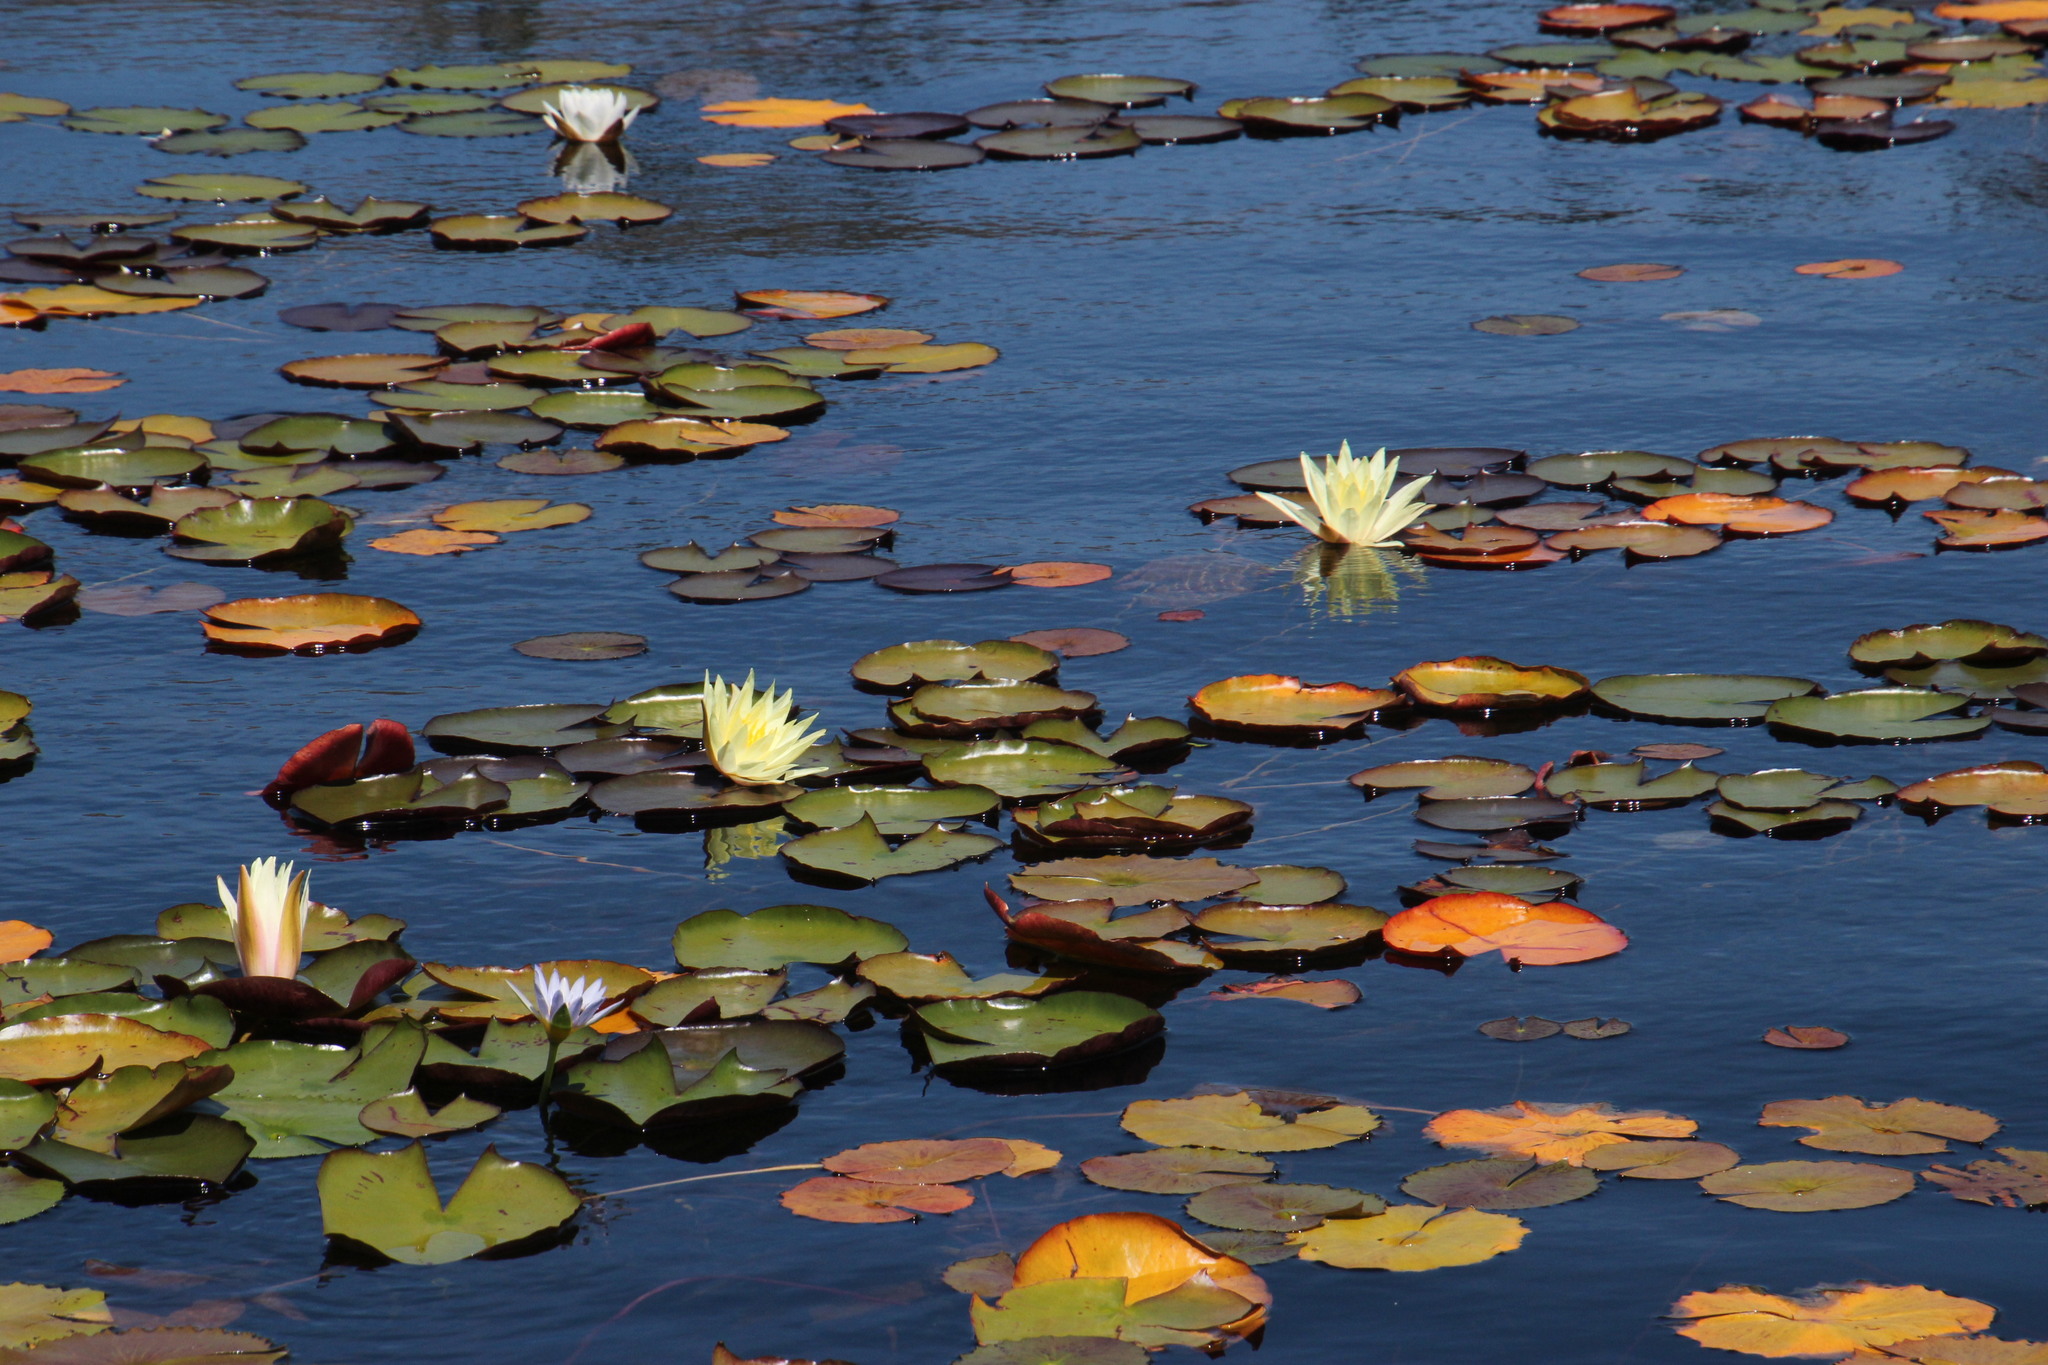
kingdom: Plantae
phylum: Tracheophyta
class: Magnoliopsida
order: Nymphaeales
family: Nymphaeaceae
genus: Nymphaea
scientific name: Nymphaea nouchali
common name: Blue lotus
